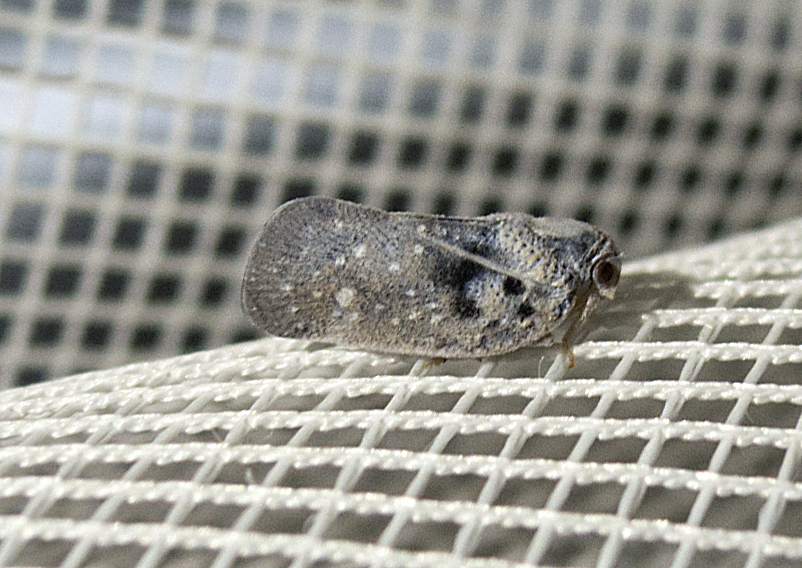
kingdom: Animalia
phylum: Arthropoda
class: Insecta
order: Hemiptera
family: Flatidae
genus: Metcalfa
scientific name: Metcalfa pruinosa
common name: Citrus flatid planthopper
